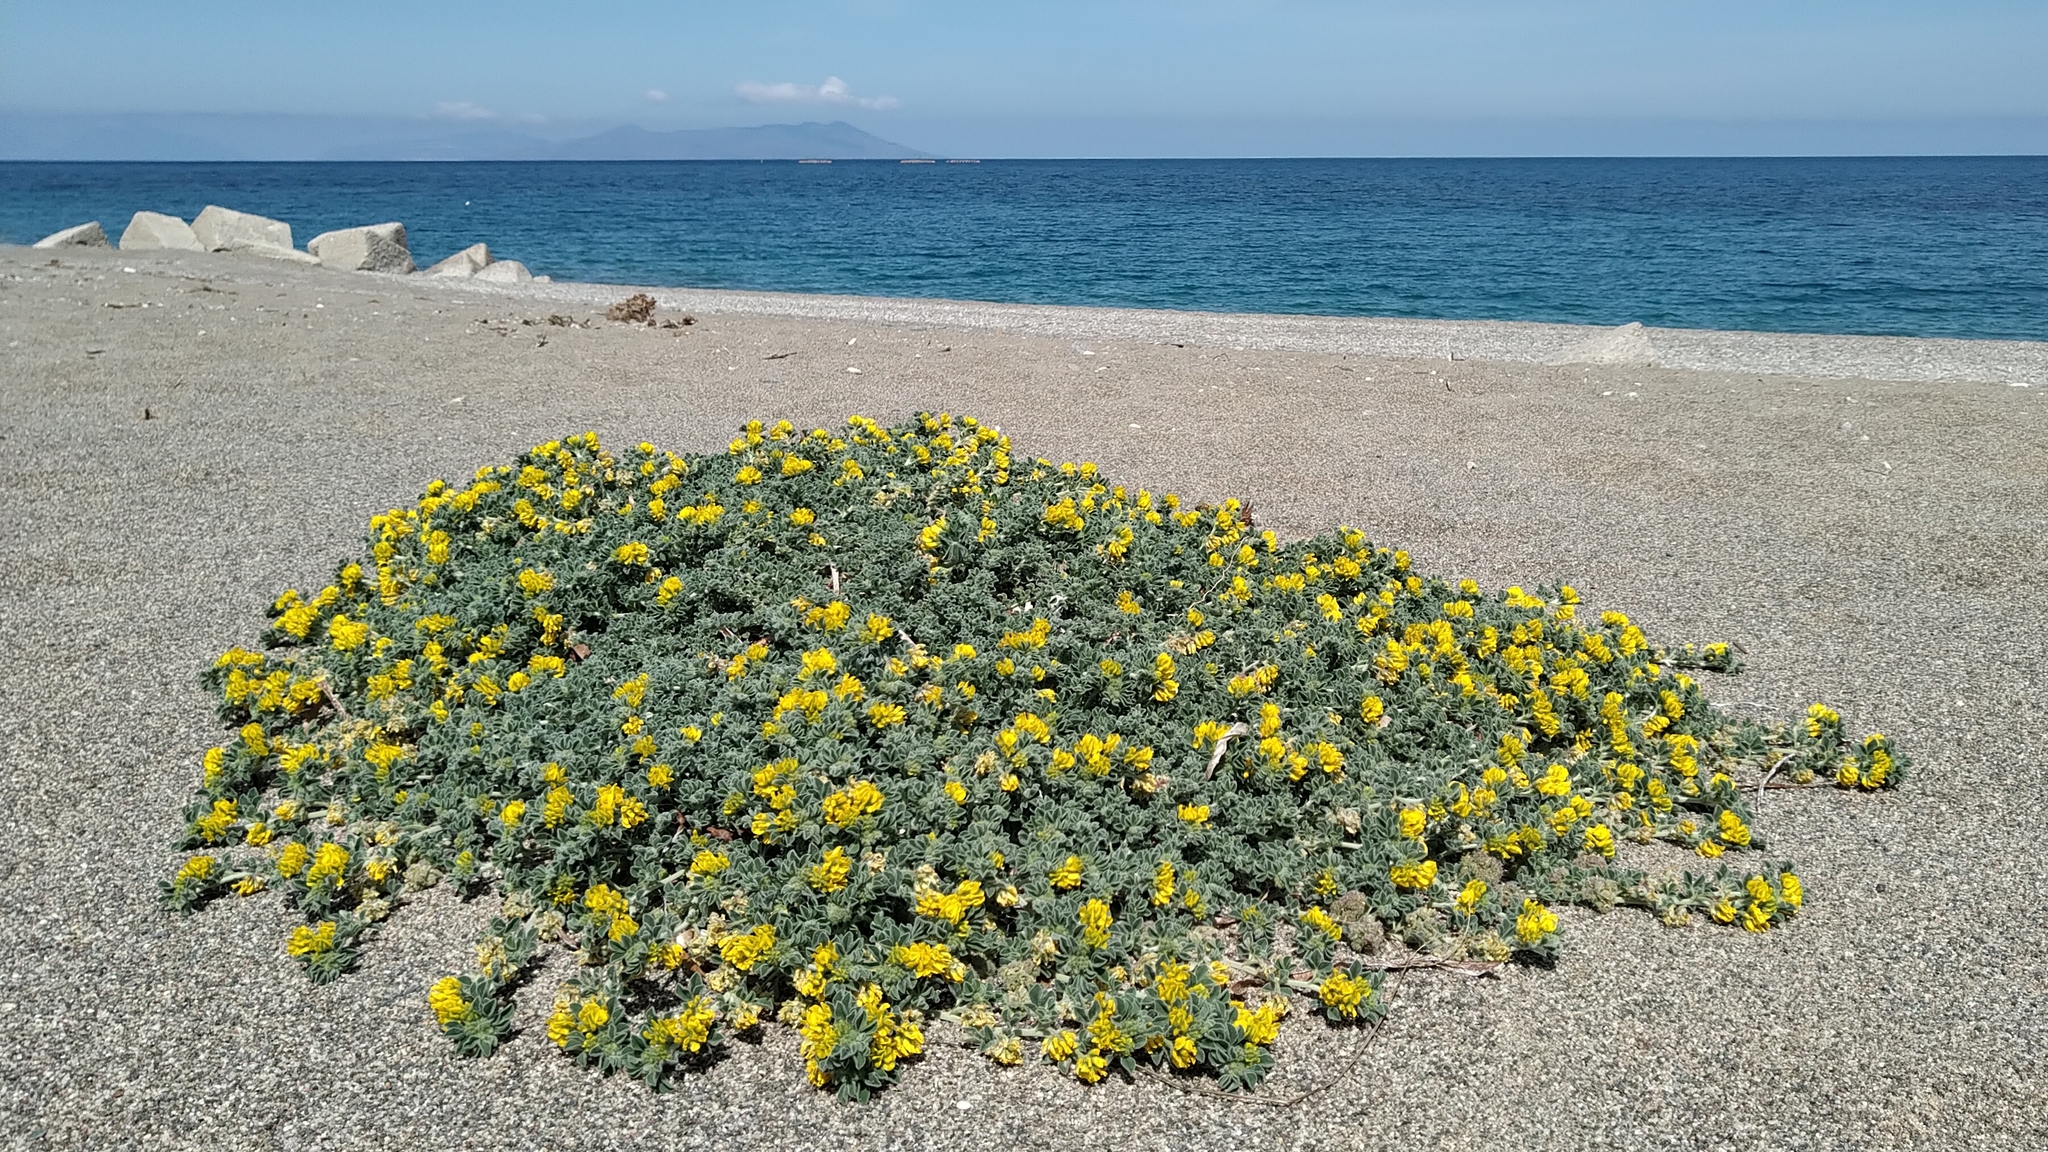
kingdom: Plantae
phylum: Tracheophyta
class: Magnoliopsida
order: Fabales
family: Fabaceae
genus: Medicago
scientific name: Medicago marina
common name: Sea medick
